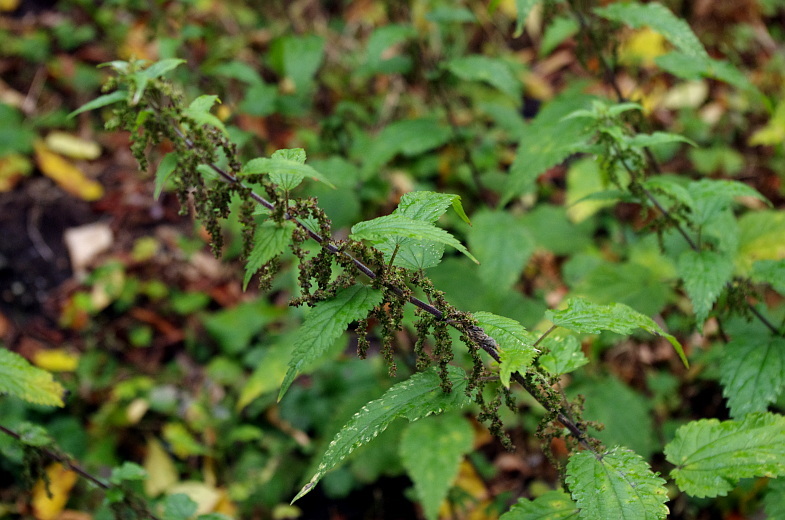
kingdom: Plantae
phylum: Tracheophyta
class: Magnoliopsida
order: Rosales
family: Urticaceae
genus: Urtica
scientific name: Urtica dioica
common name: Common nettle
